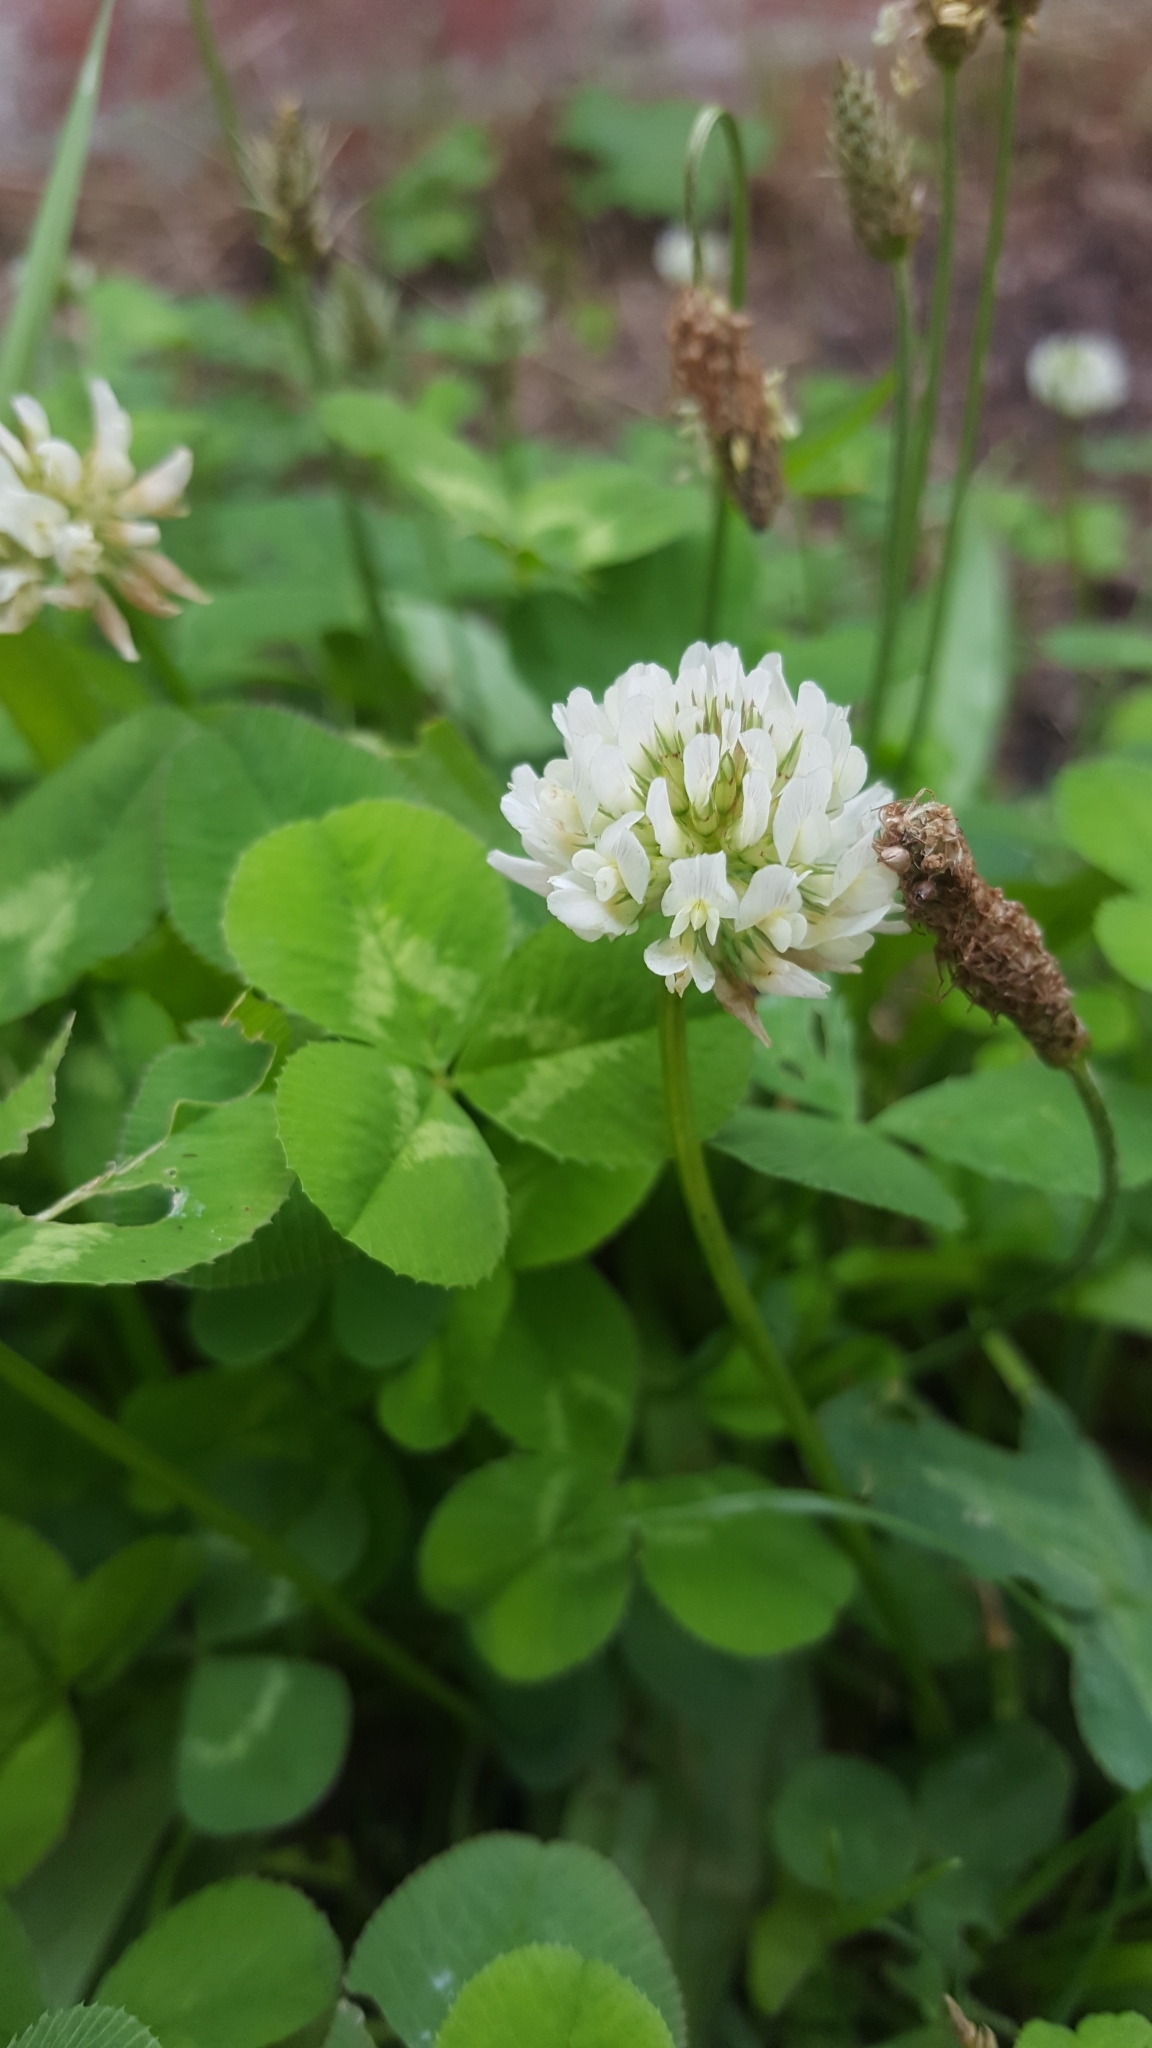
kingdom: Plantae
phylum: Tracheophyta
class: Magnoliopsida
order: Fabales
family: Fabaceae
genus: Trifolium
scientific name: Trifolium repens
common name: White clover
